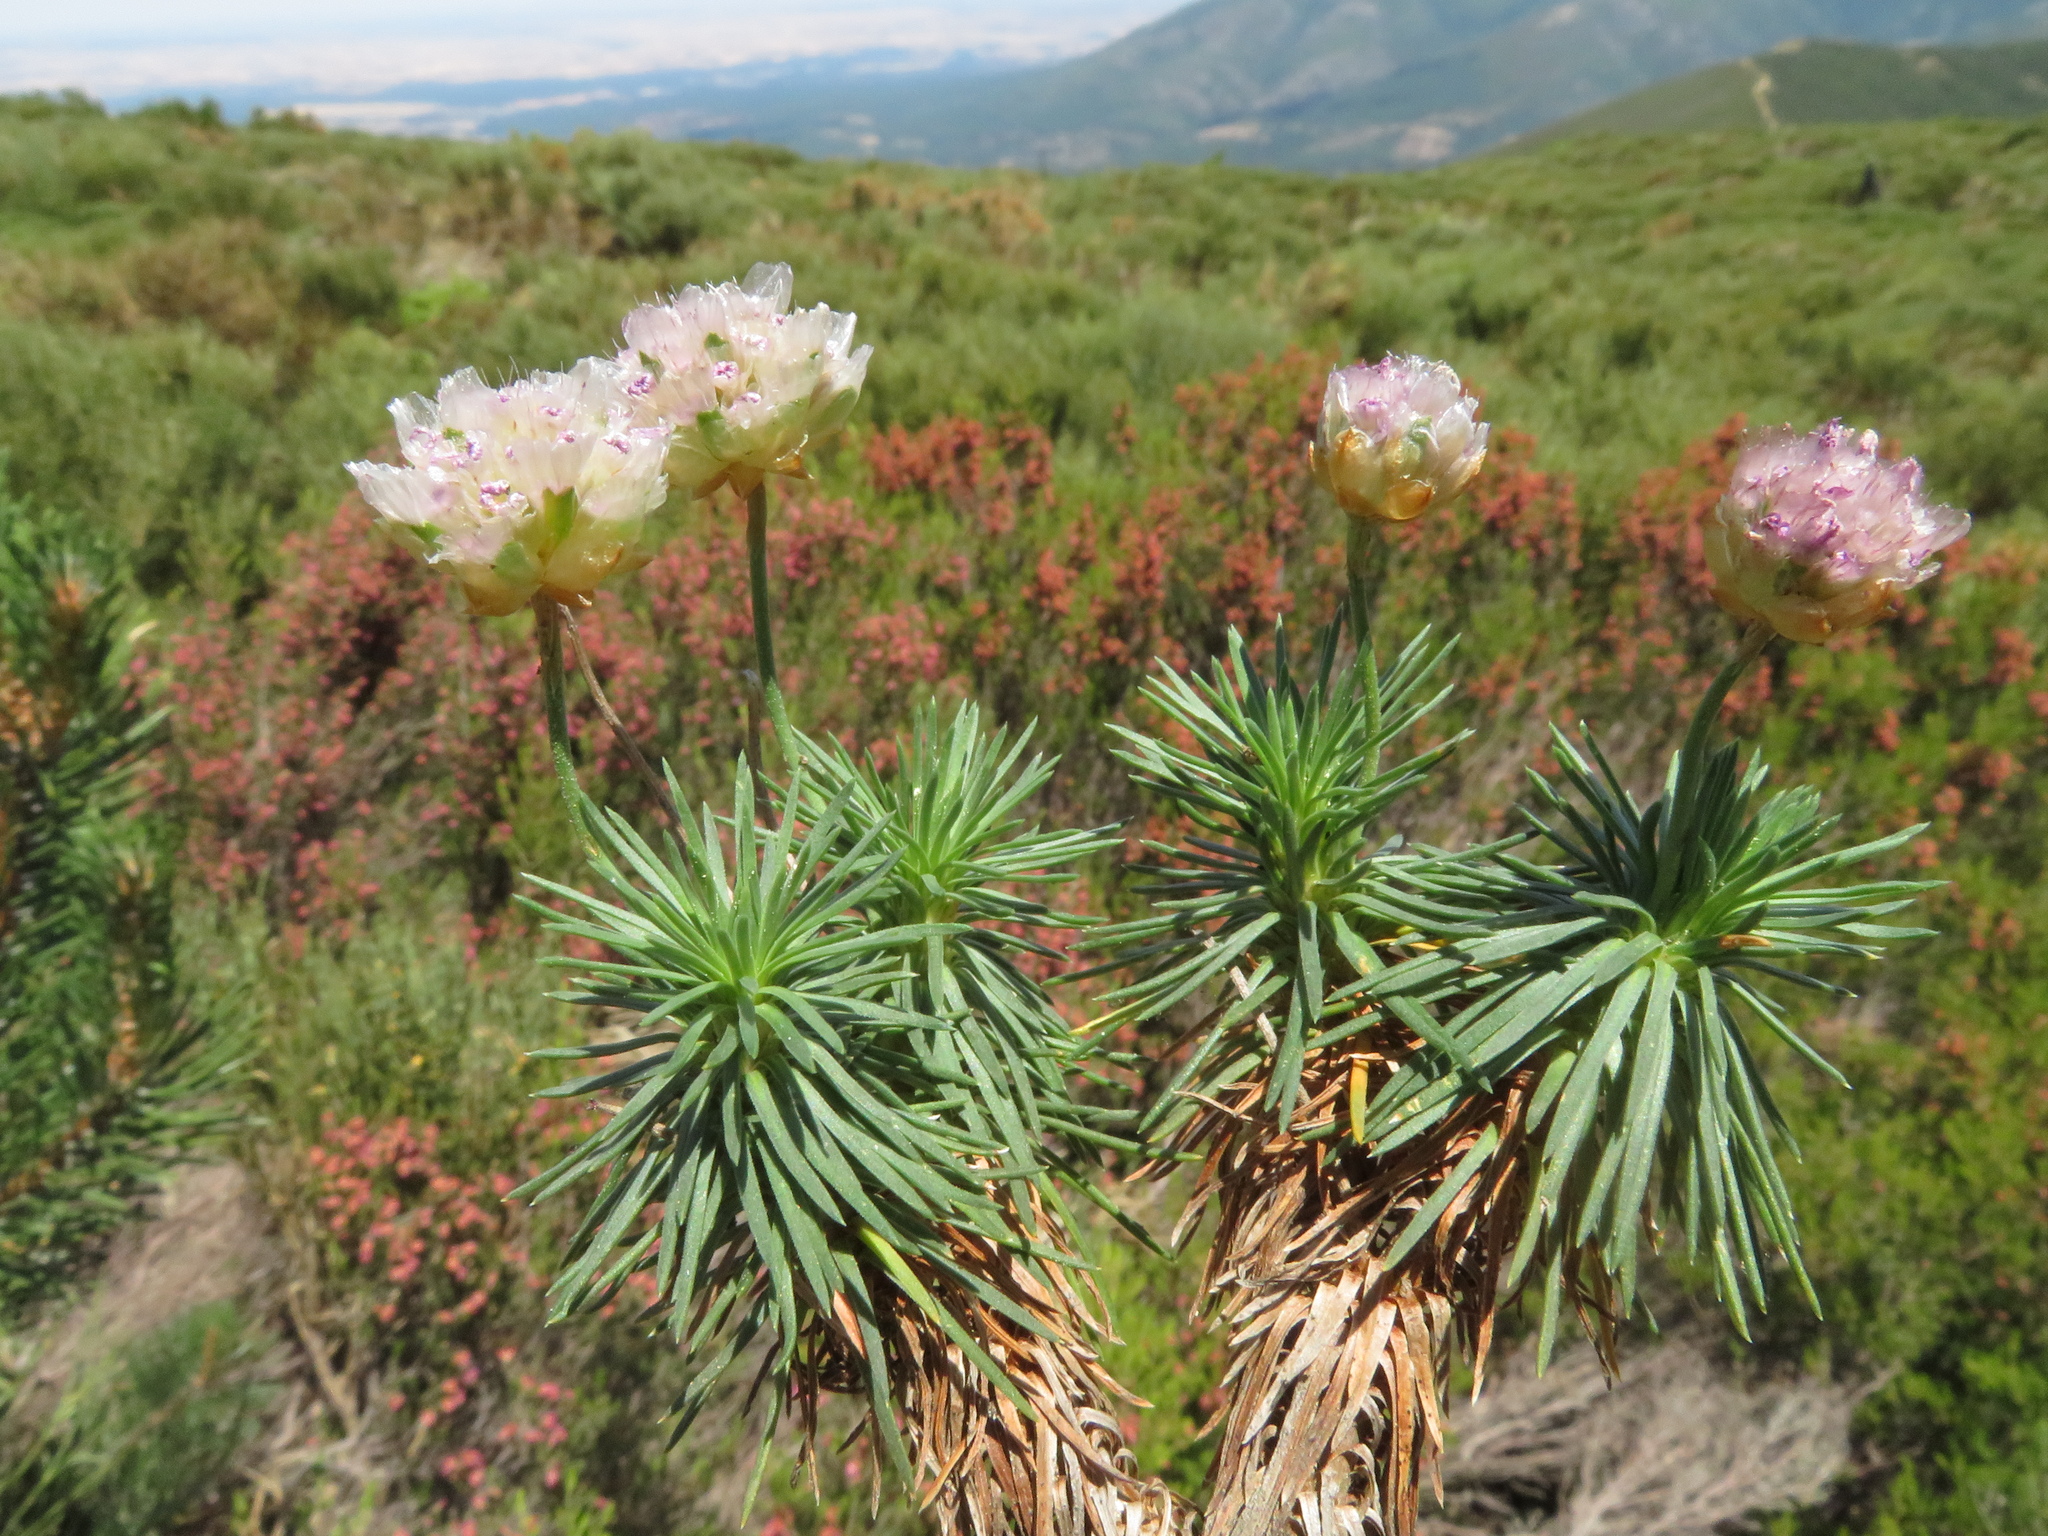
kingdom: Plantae
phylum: Tracheophyta
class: Magnoliopsida
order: Caryophyllales
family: Plumbaginaceae
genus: Armeria
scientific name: Armeria caespitosa
